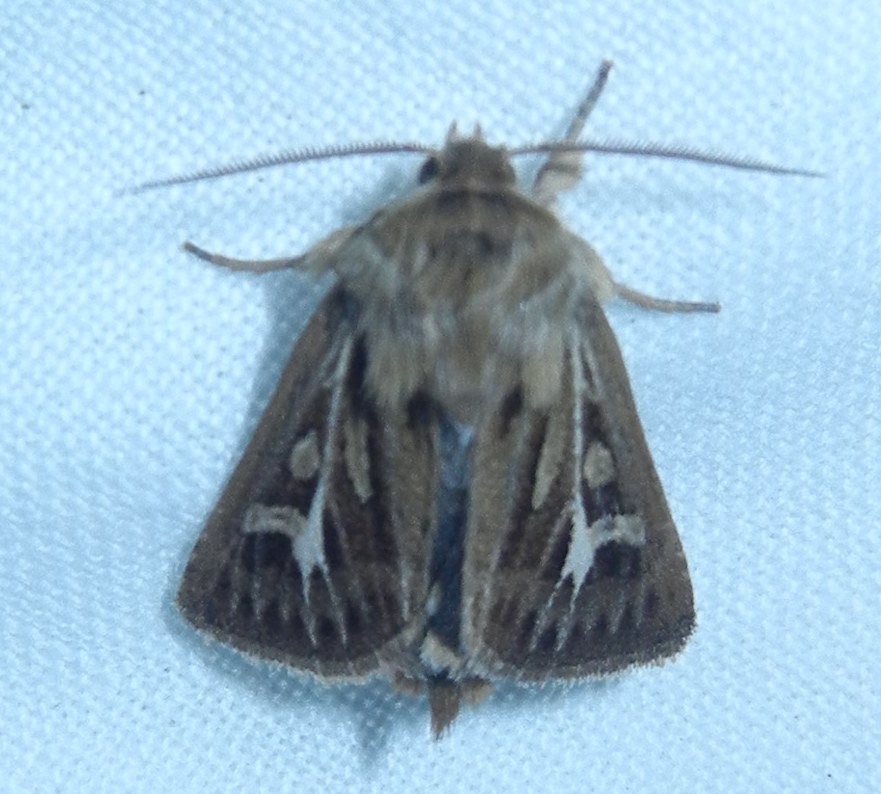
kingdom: Animalia
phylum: Arthropoda
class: Insecta
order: Lepidoptera
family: Noctuidae
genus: Cerapteryx
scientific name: Cerapteryx graminis
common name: Antler moth
